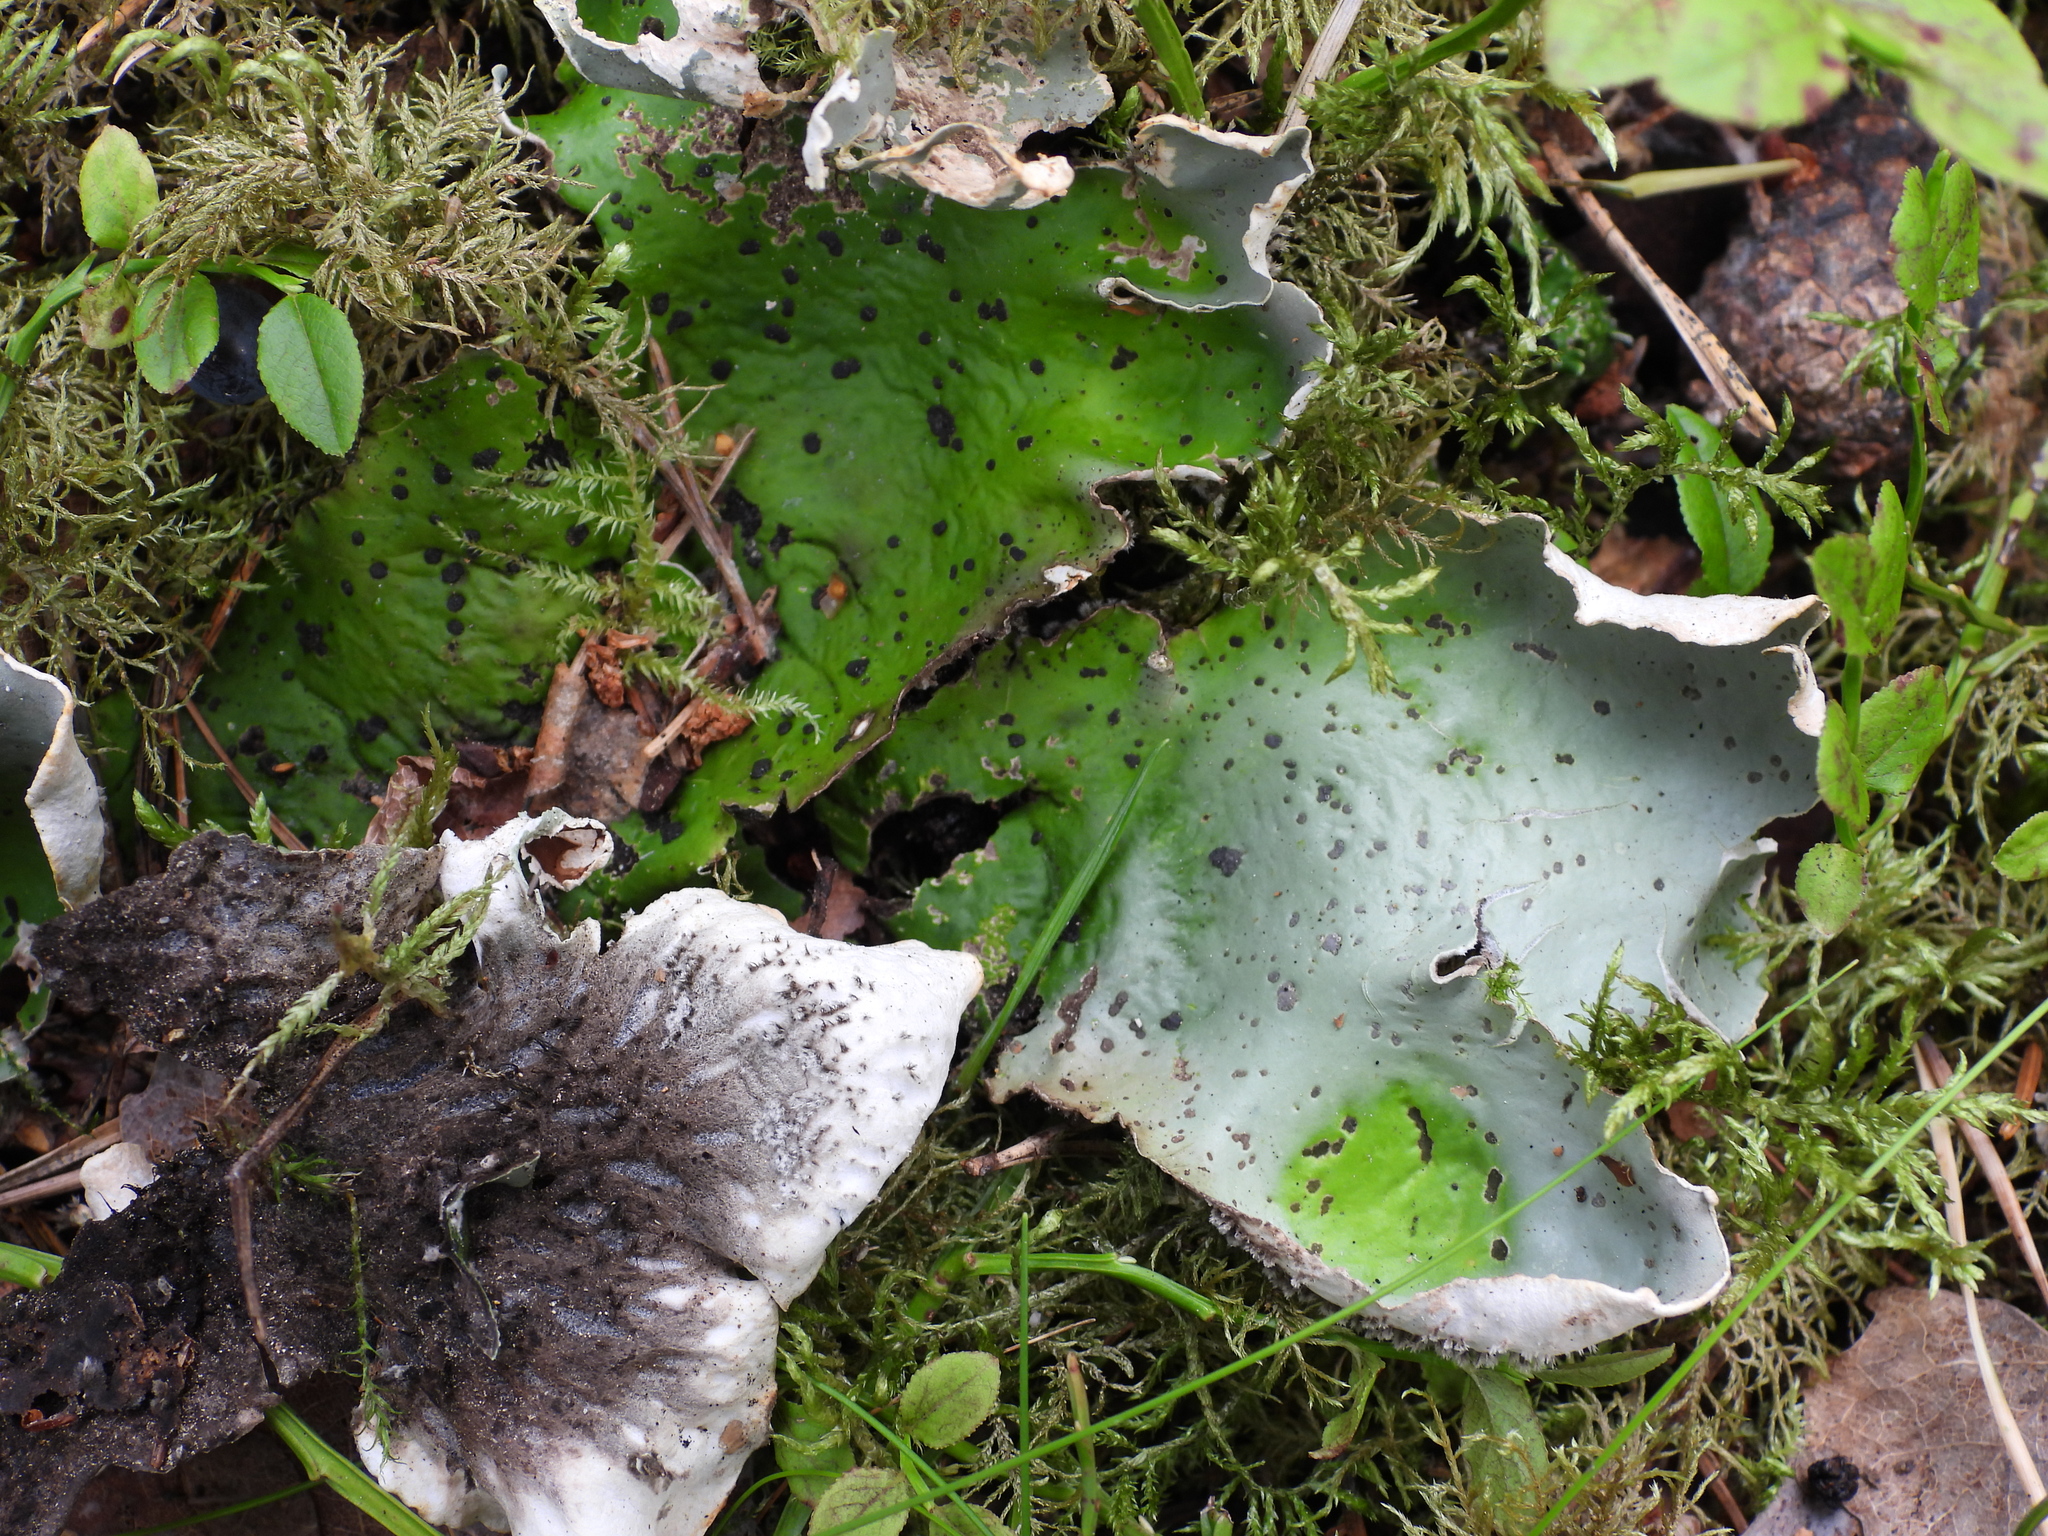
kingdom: Fungi
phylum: Ascomycota
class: Lecanoromycetes
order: Peltigerales
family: Peltigeraceae
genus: Peltigera
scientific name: Peltigera aphthosa
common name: Common freckle pelt lichen
